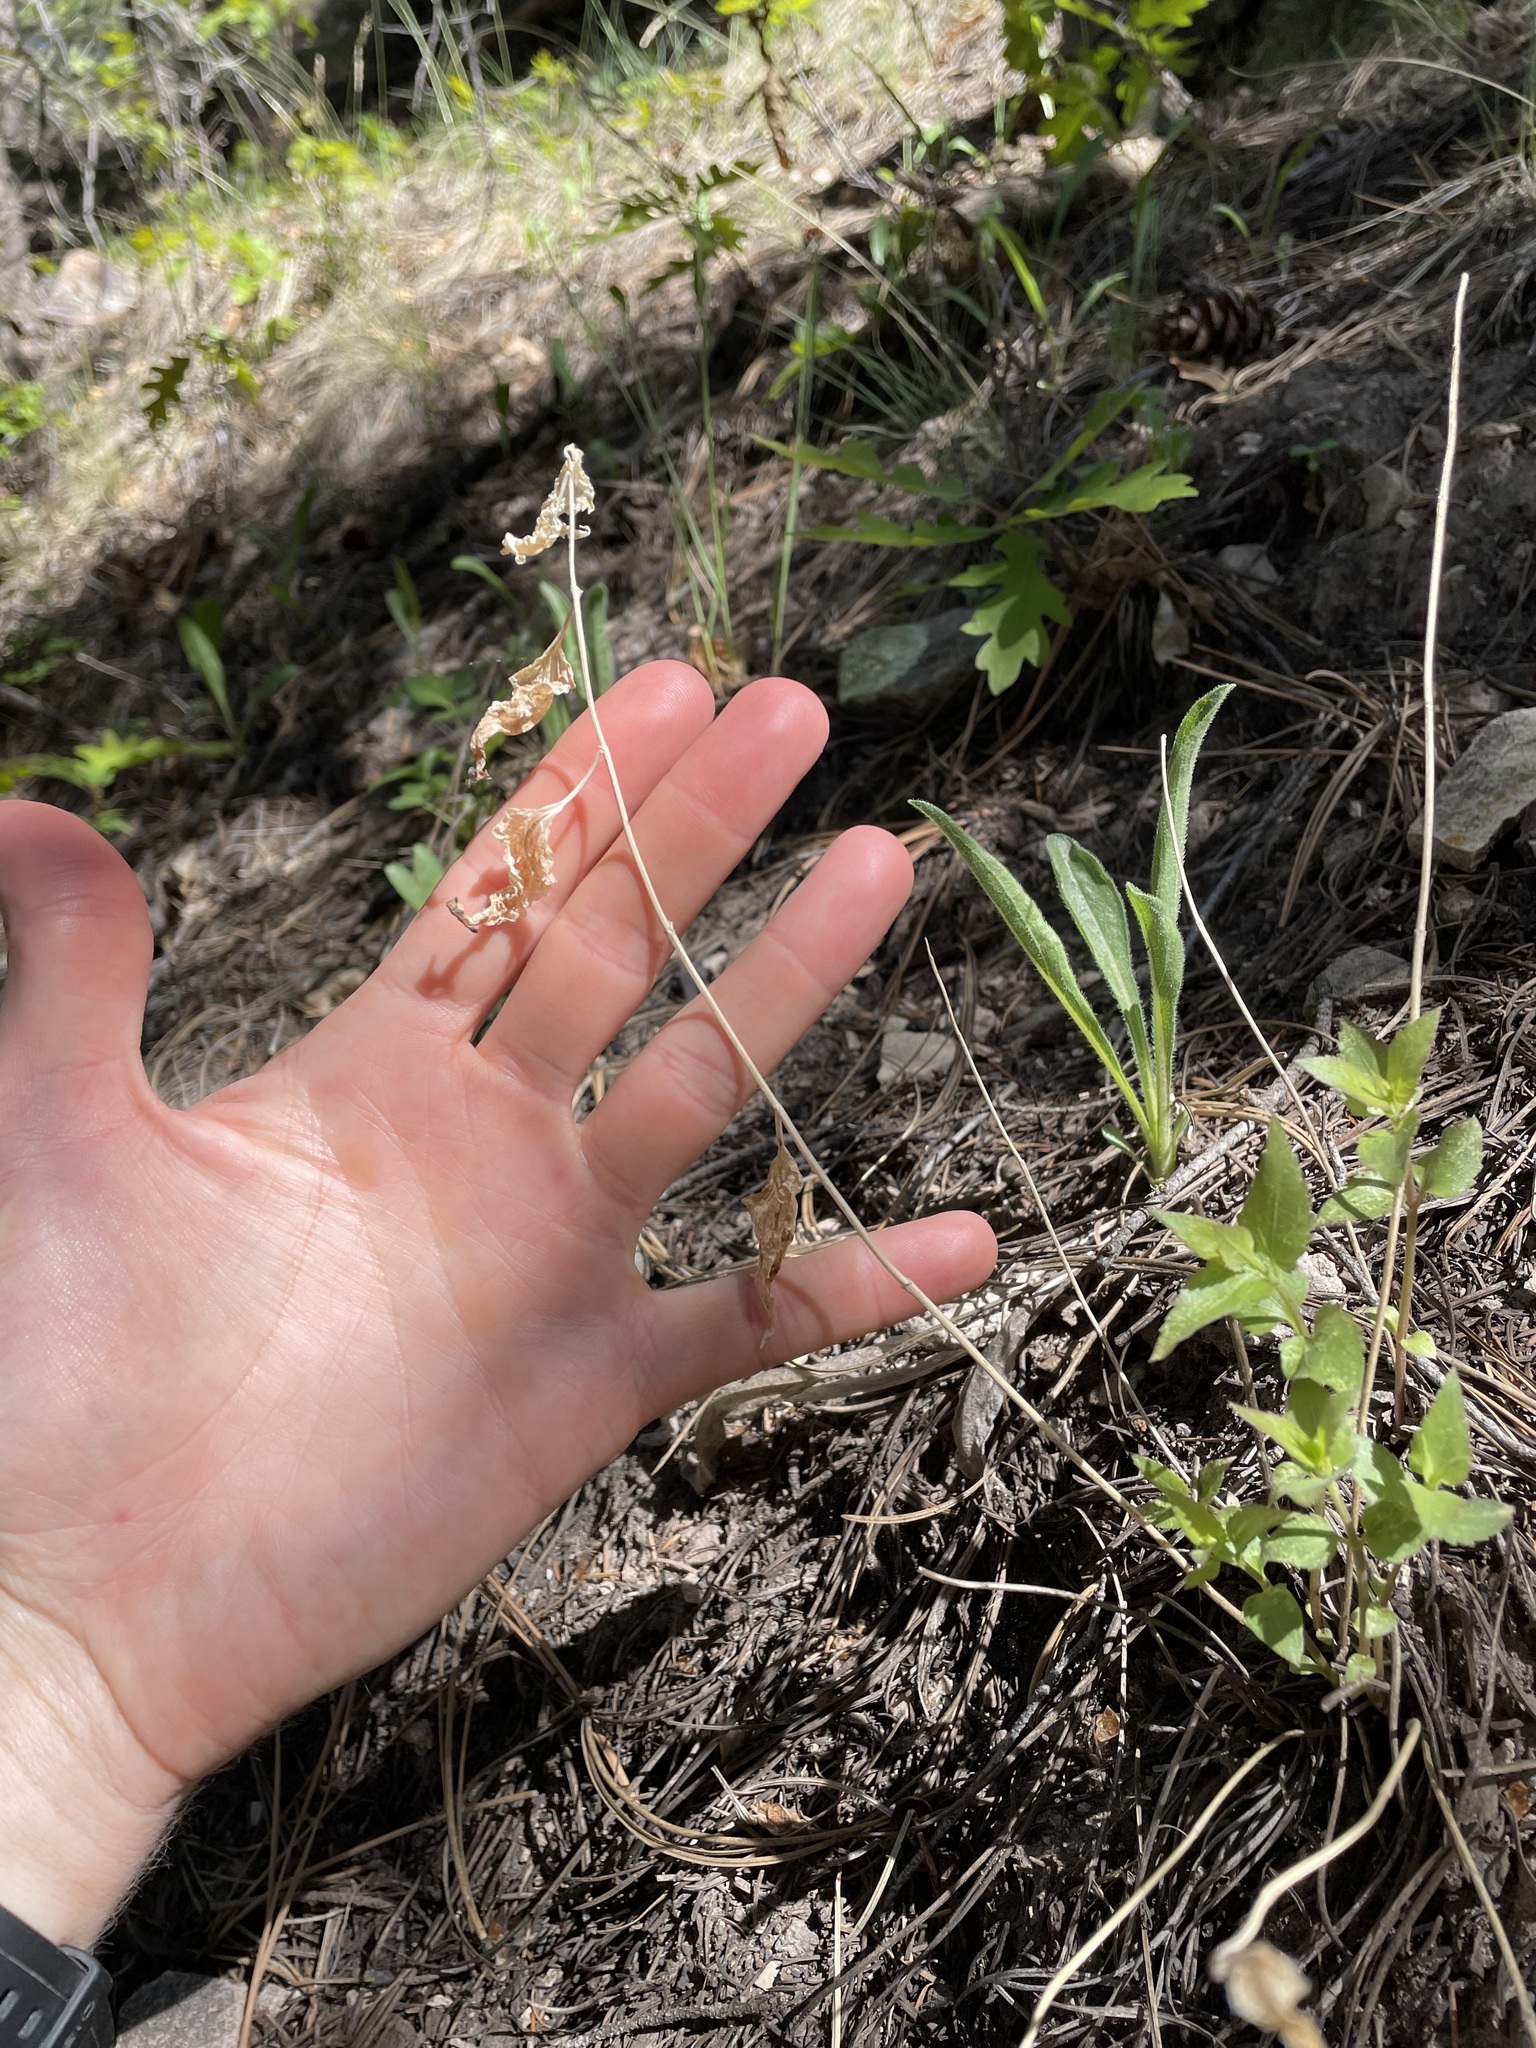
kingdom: Plantae
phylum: Tracheophyta
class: Magnoliopsida
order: Asterales
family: Asteraceae
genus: Ageratina
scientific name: Ageratina herbacea
